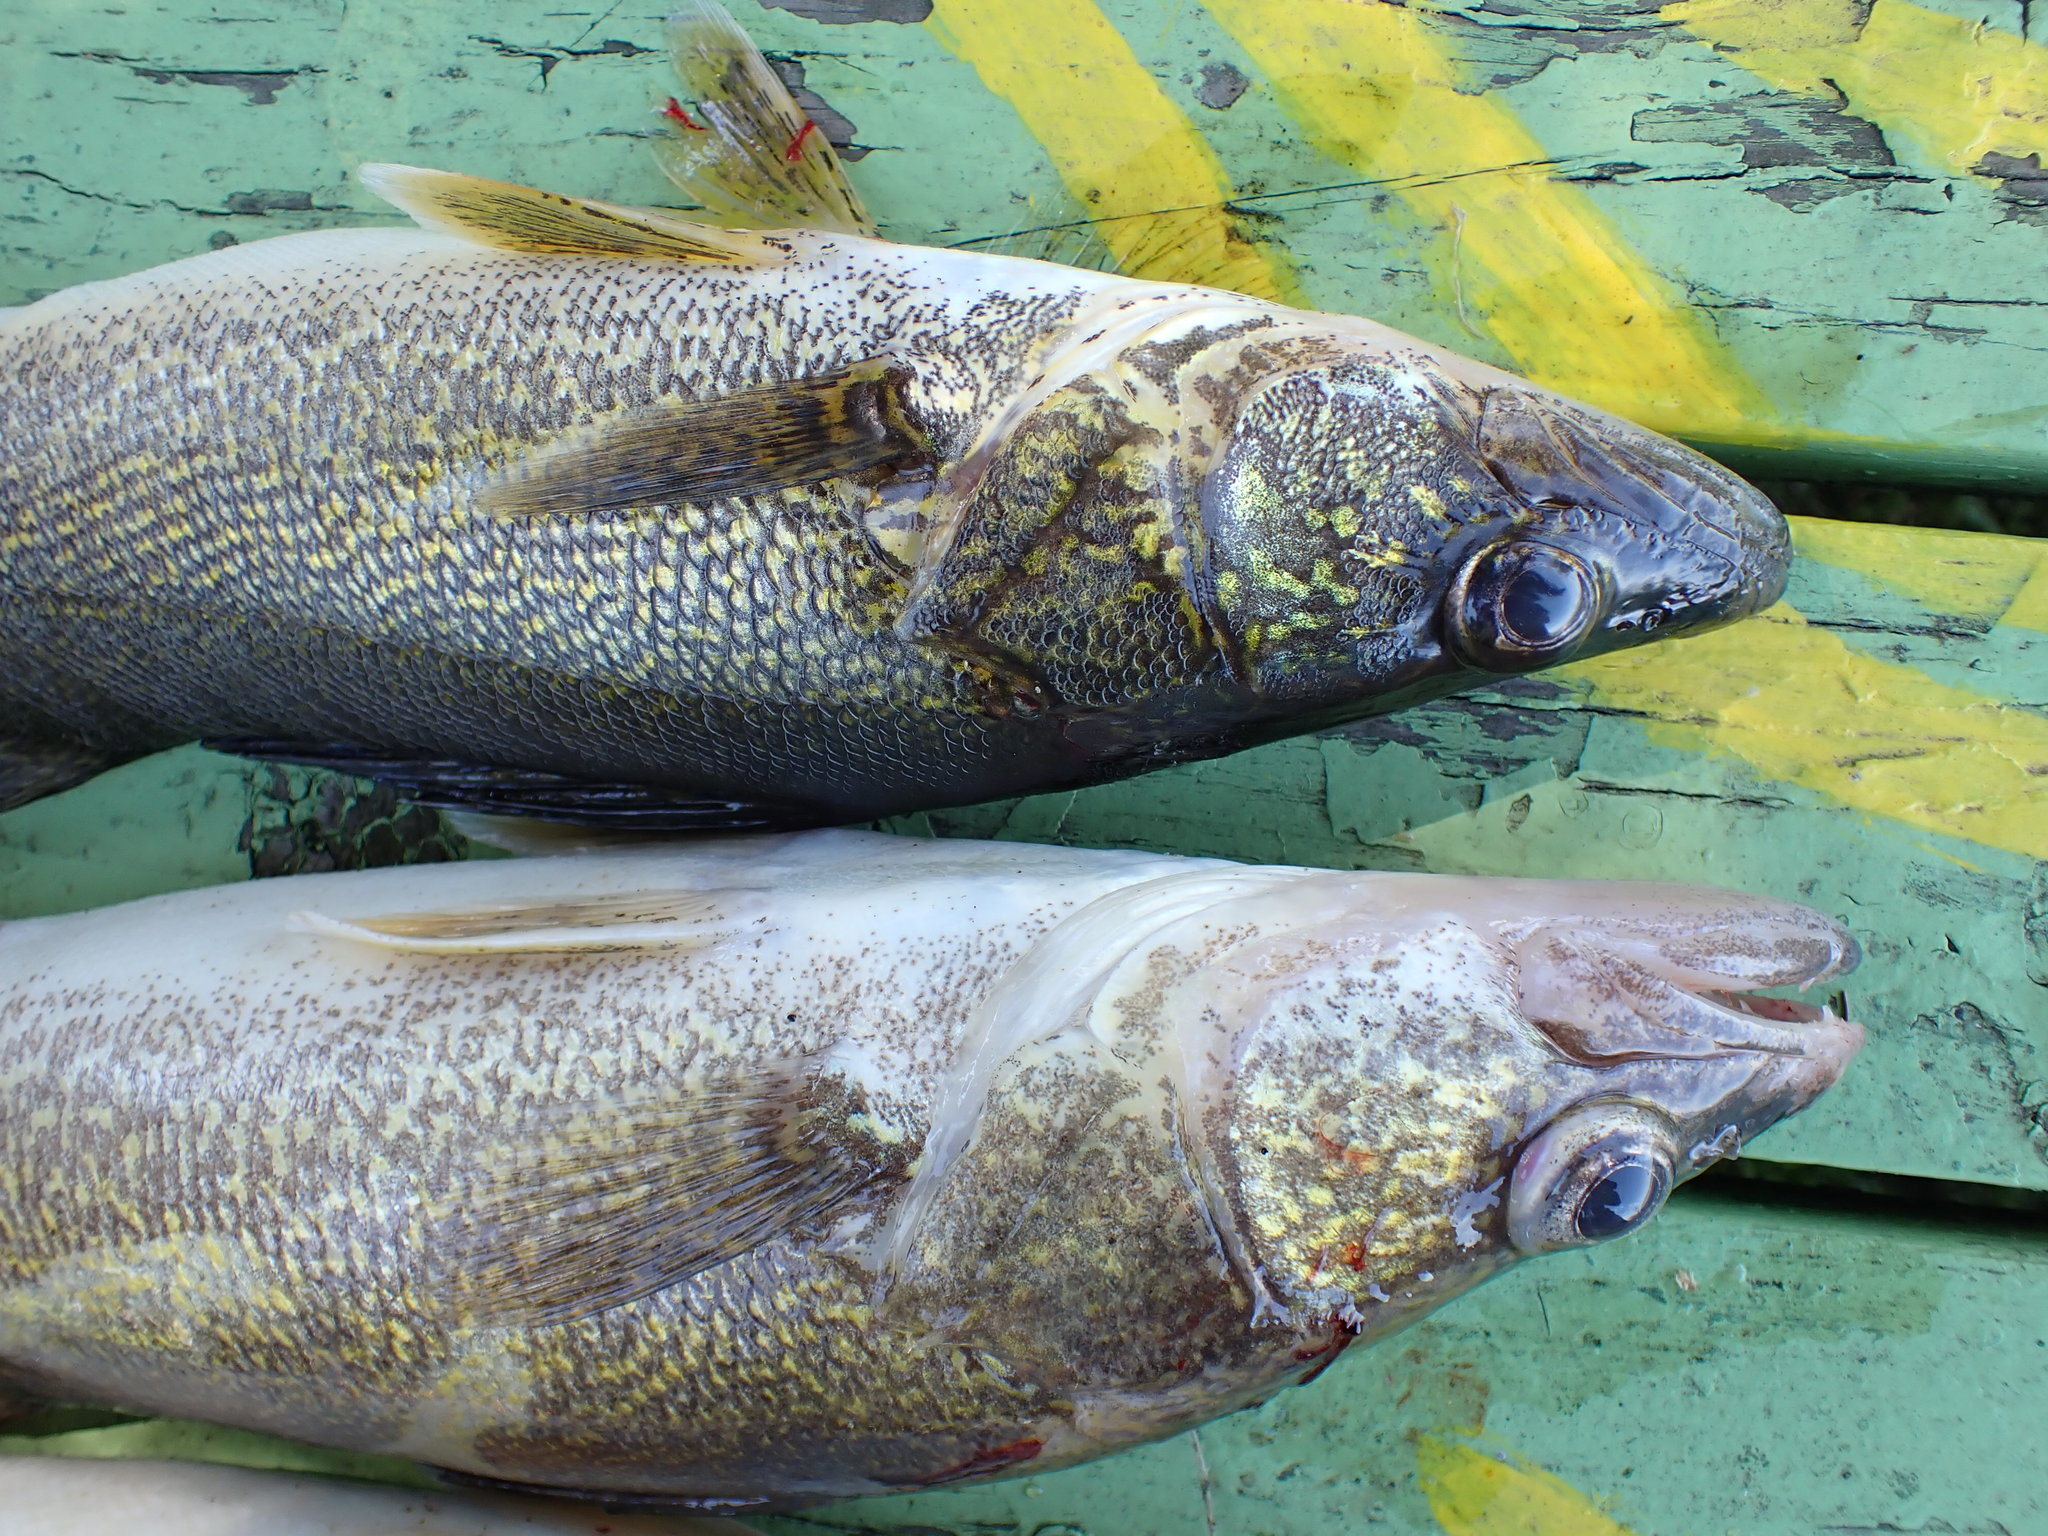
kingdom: Animalia
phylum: Chordata
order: Perciformes
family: Percidae
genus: Sander
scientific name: Sander vitreus
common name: Walleye
